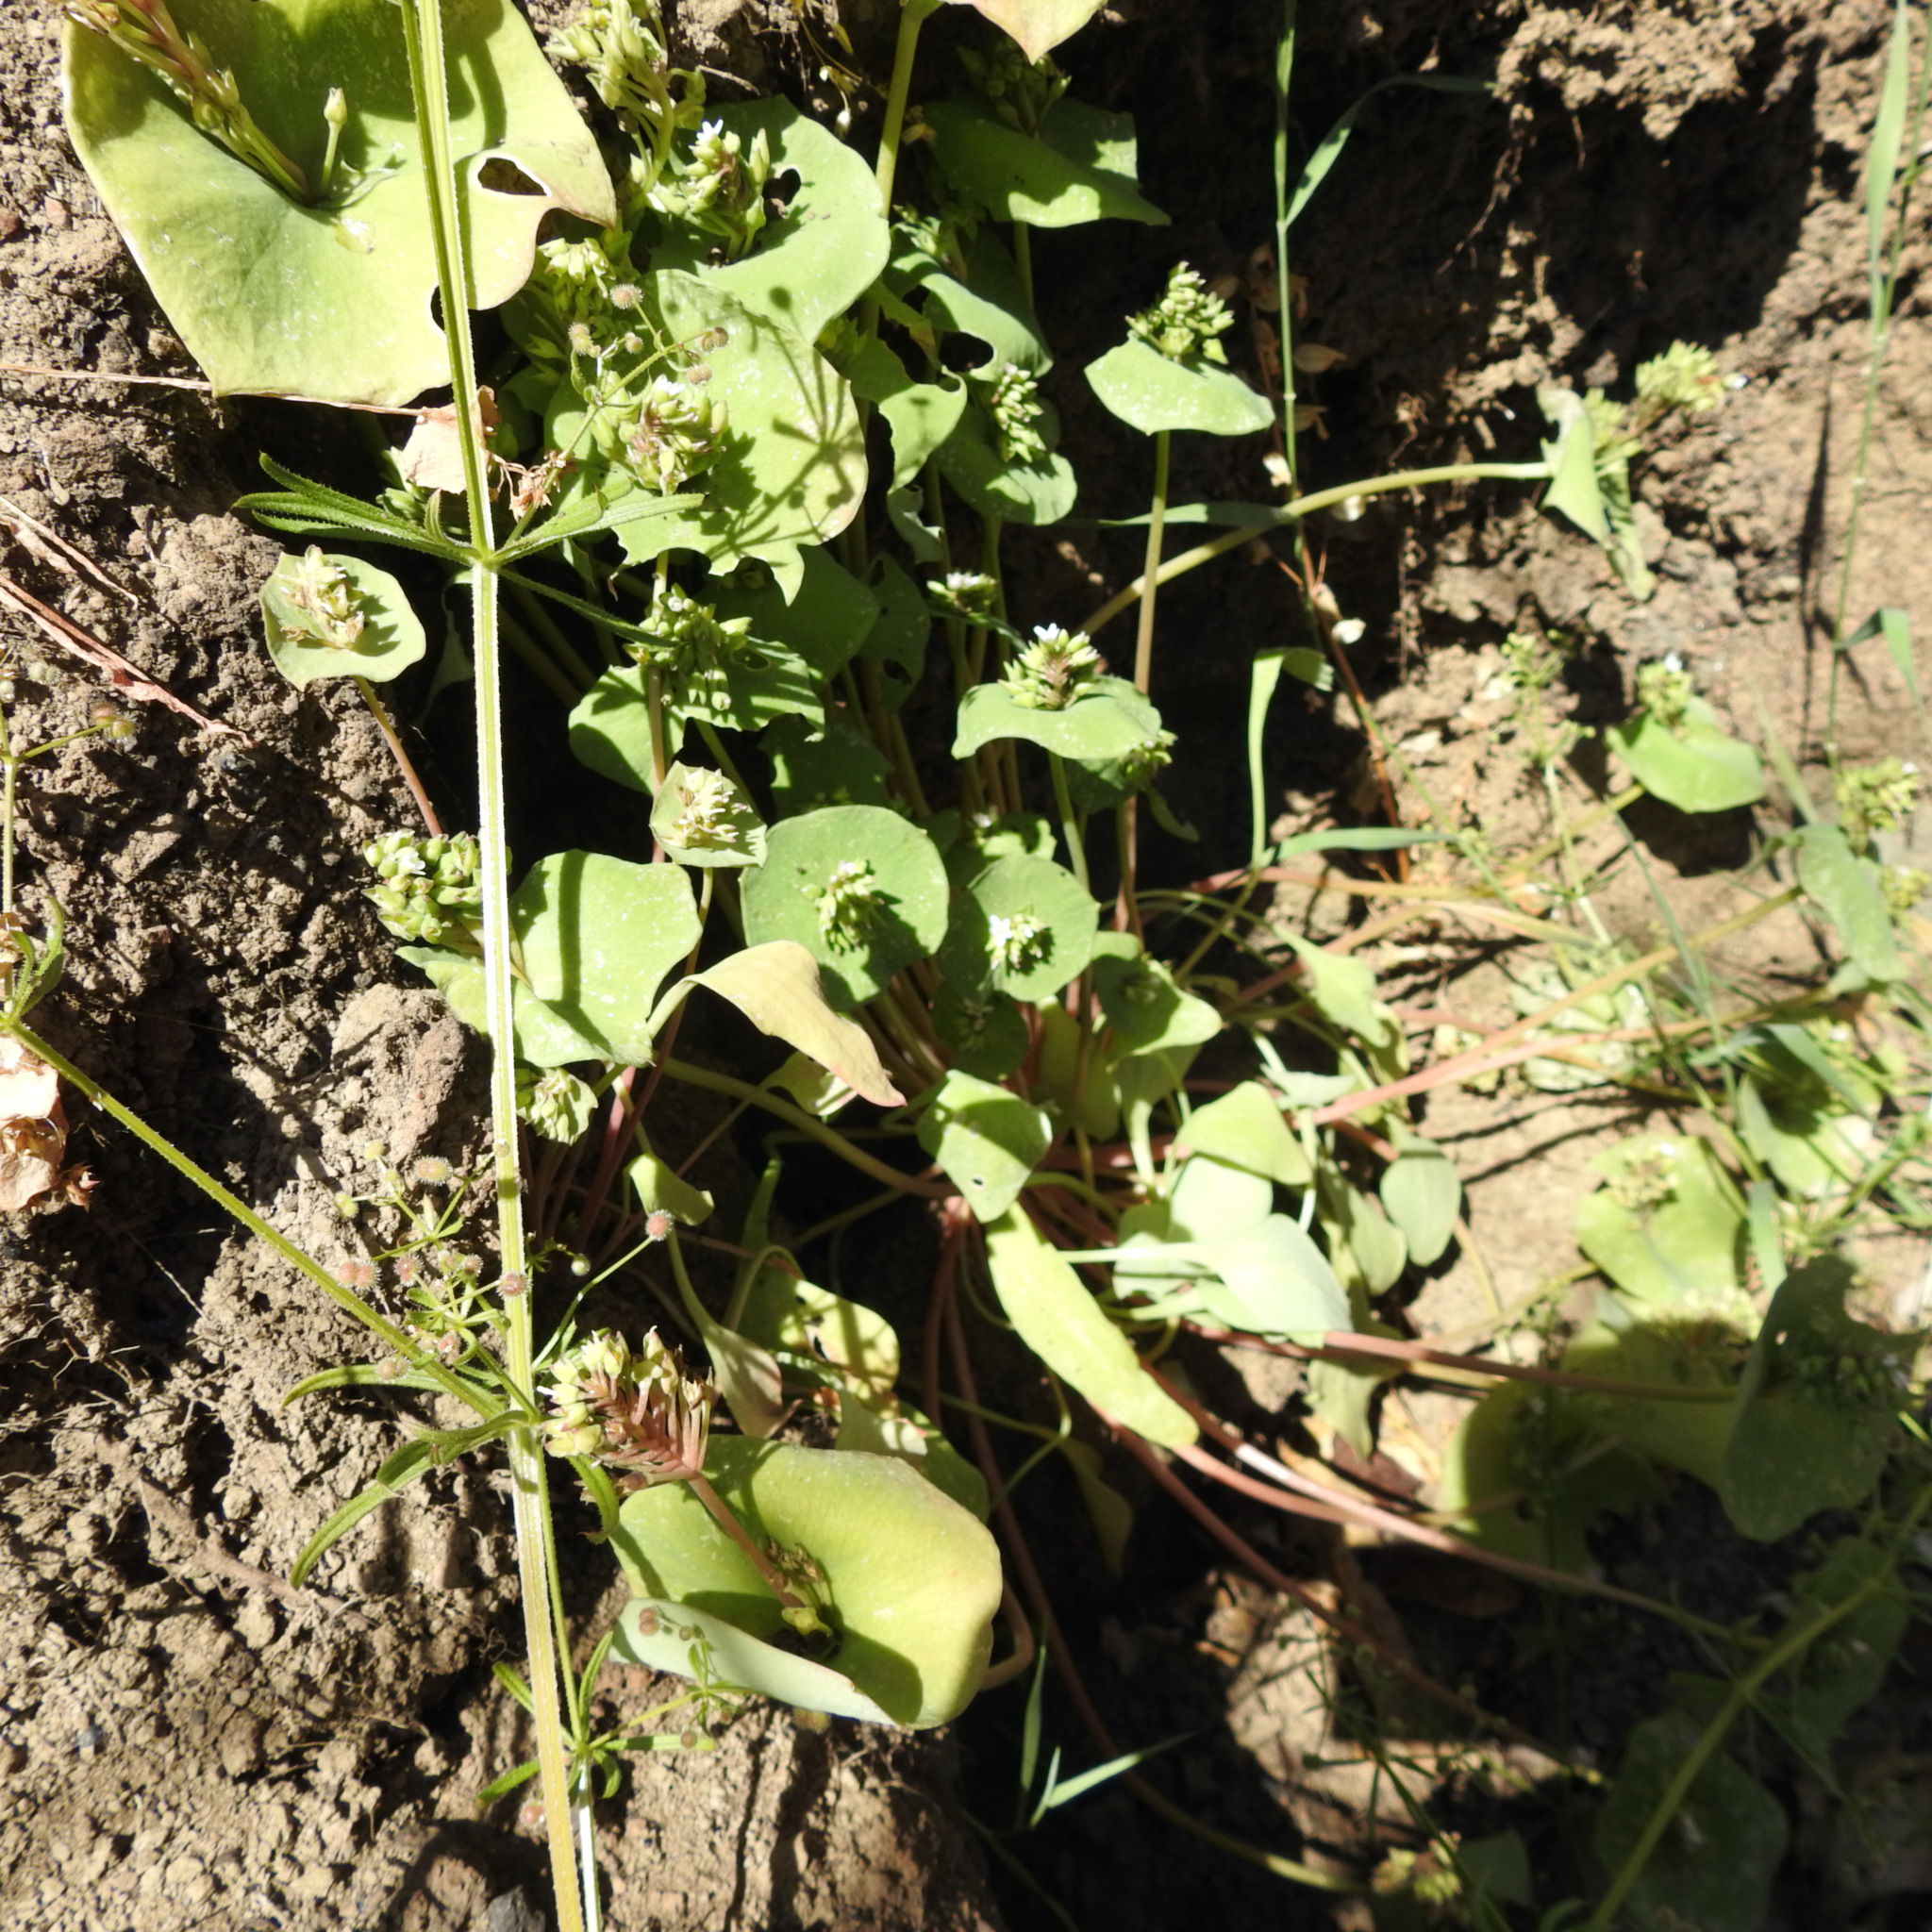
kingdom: Plantae
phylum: Tracheophyta
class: Magnoliopsida
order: Caryophyllales
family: Montiaceae
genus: Claytonia
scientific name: Claytonia perfoliata
